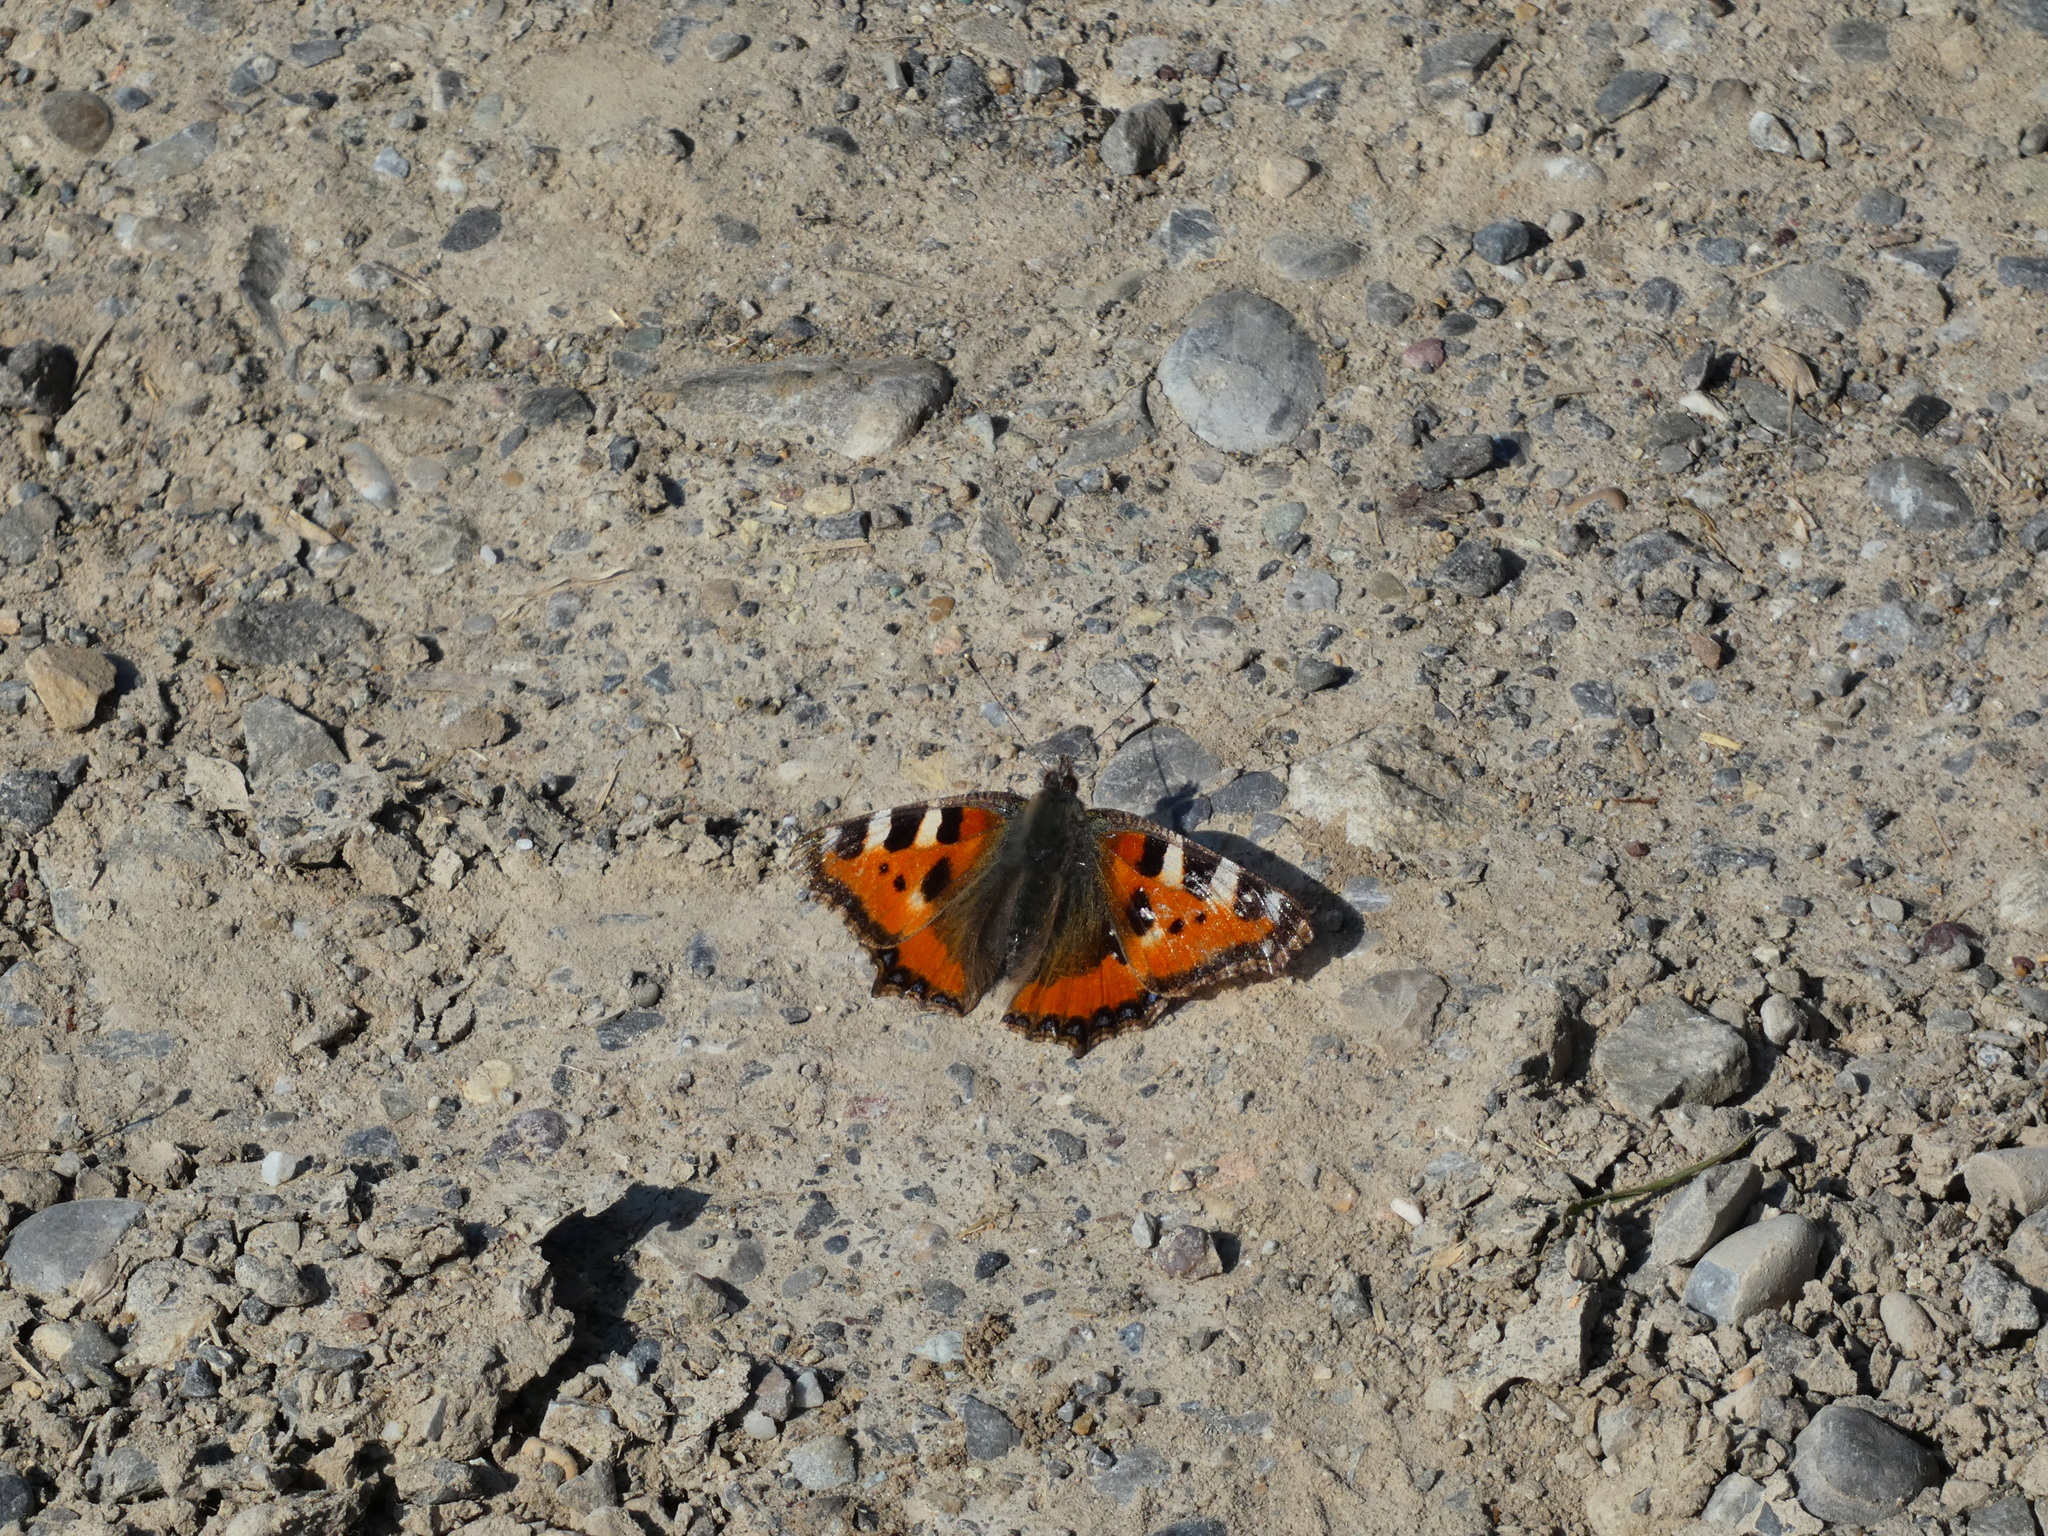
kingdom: Animalia
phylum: Arthropoda
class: Insecta
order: Lepidoptera
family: Nymphalidae
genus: Aglais
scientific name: Aglais urticae
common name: Small tortoiseshell
